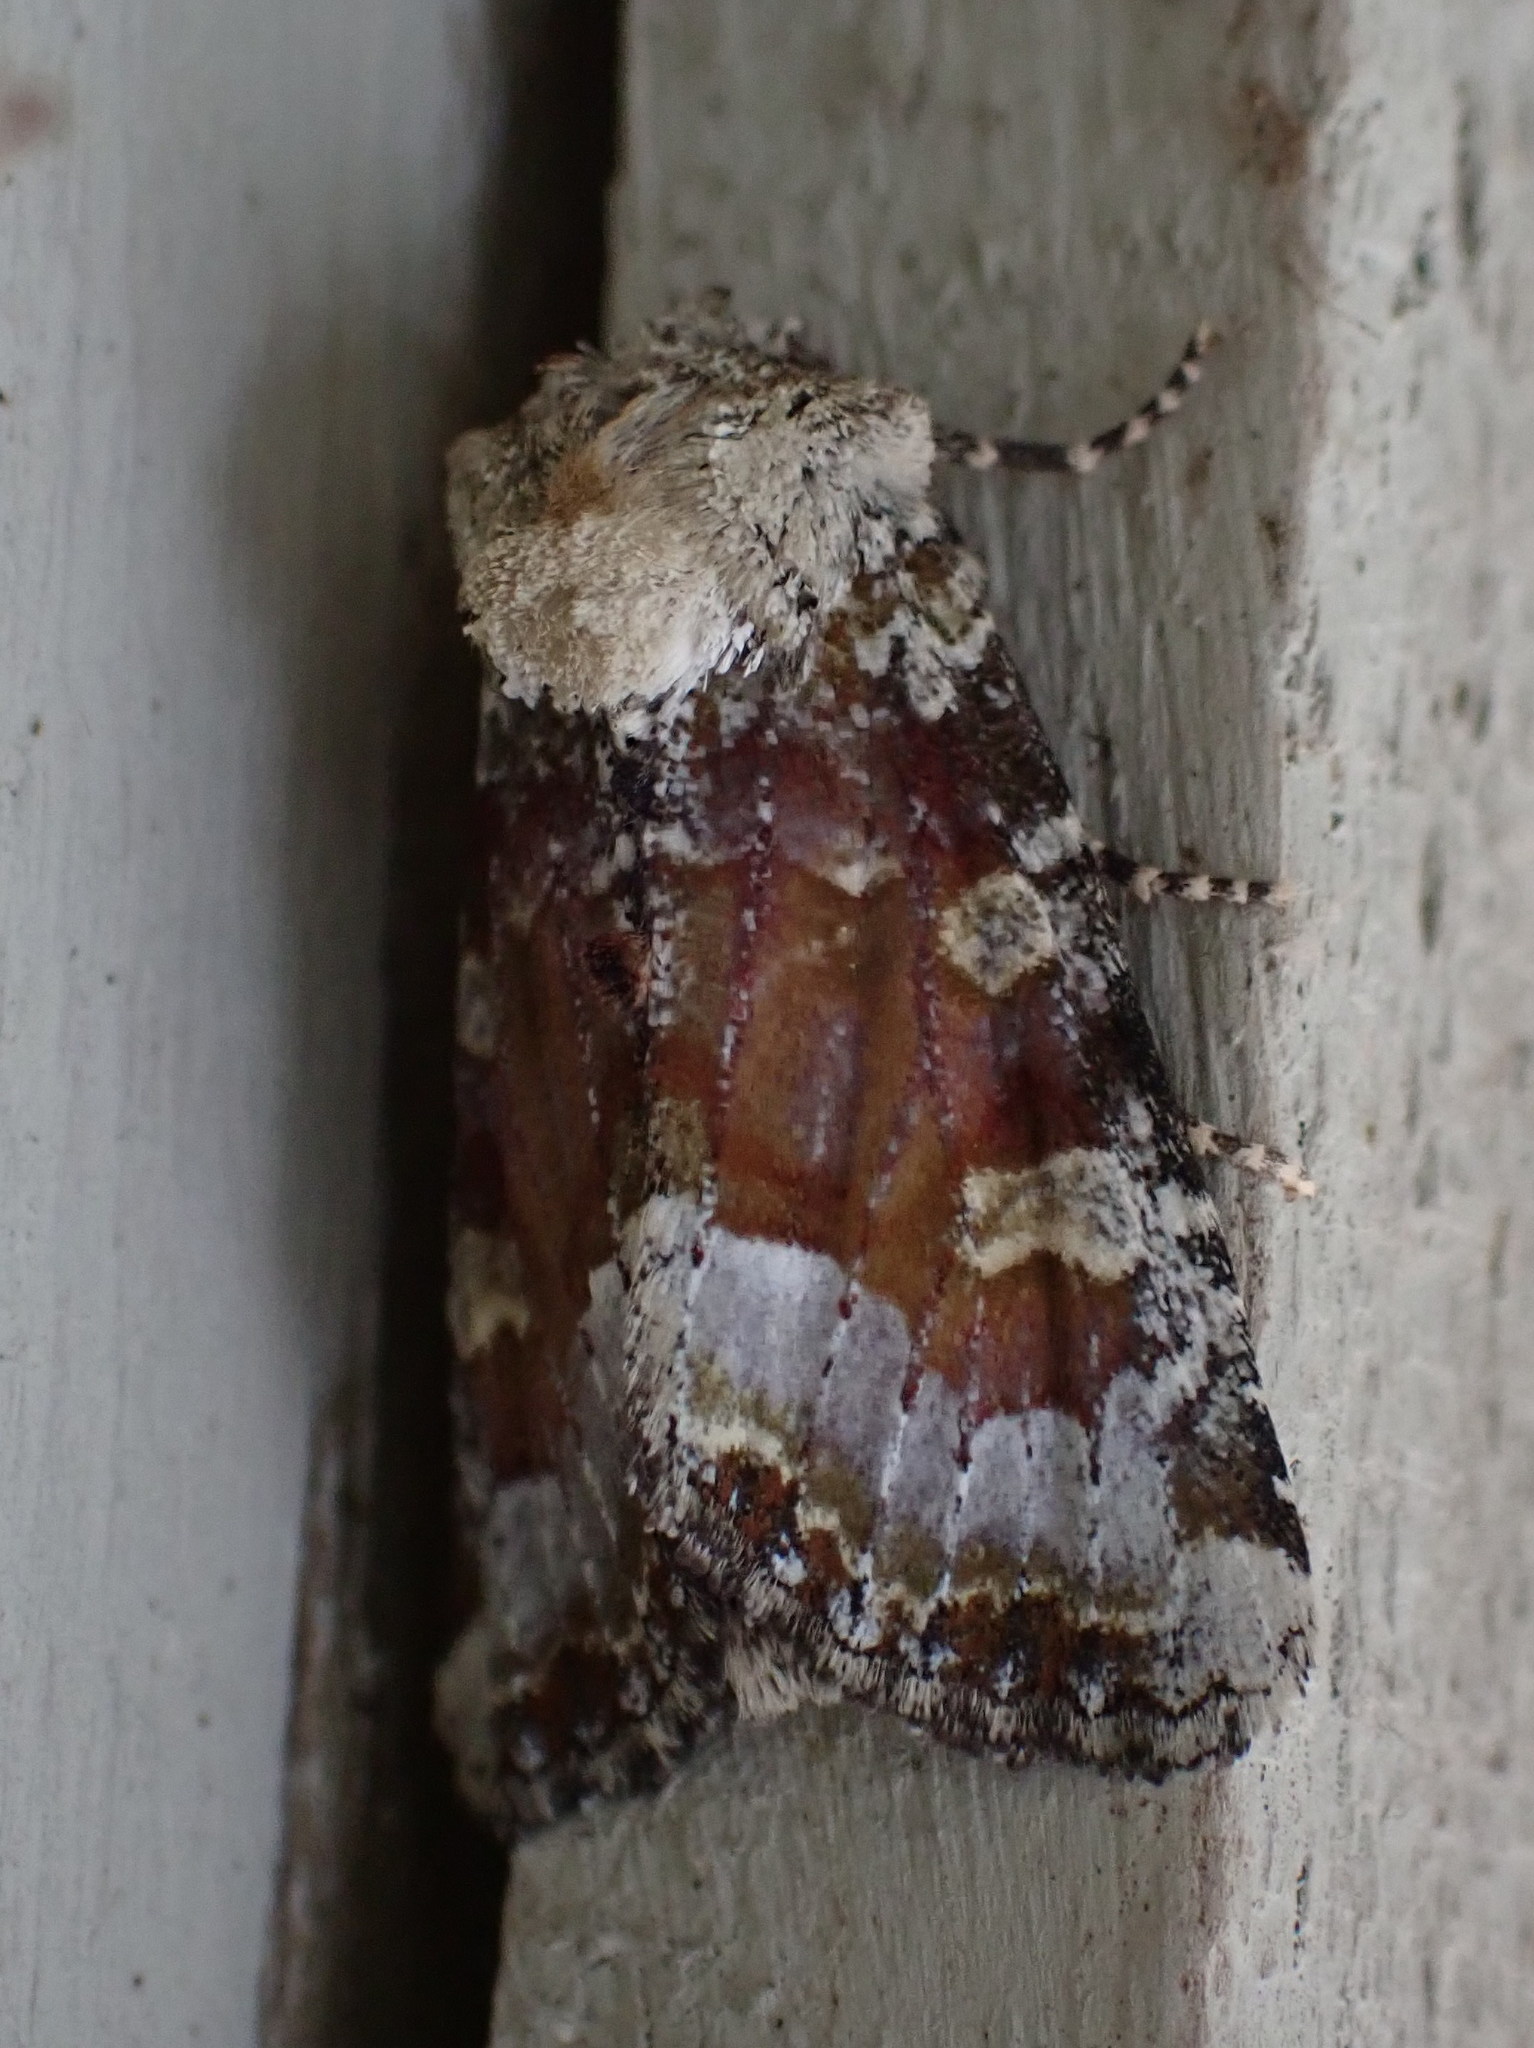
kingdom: Animalia
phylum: Arthropoda
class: Insecta
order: Lepidoptera
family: Noctuidae
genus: Oligia
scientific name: Oligia bridghamii
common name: Bridgham's brocade moth
